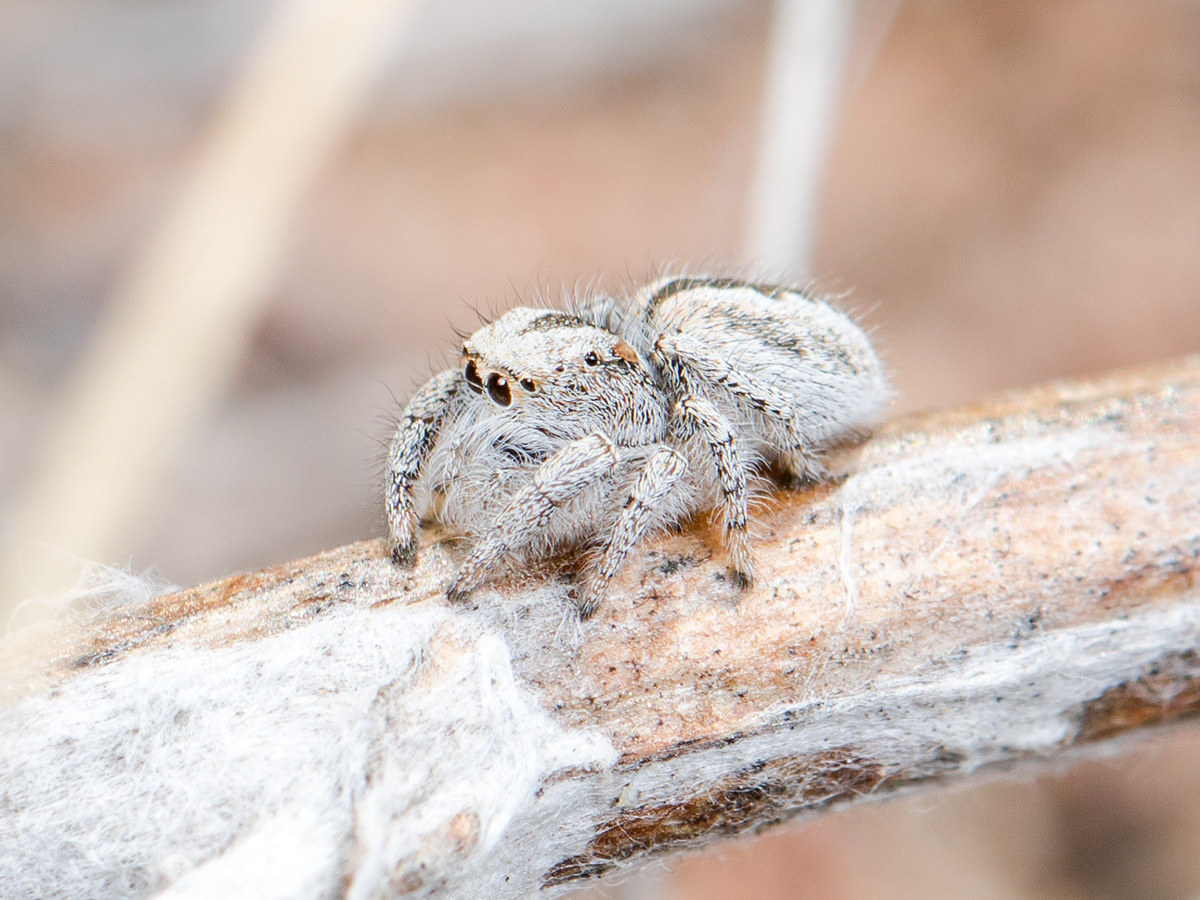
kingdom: Animalia
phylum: Arthropoda
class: Arachnida
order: Araneae
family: Salticidae
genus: Pseudomogrus
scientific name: Pseudomogrus vittatus
